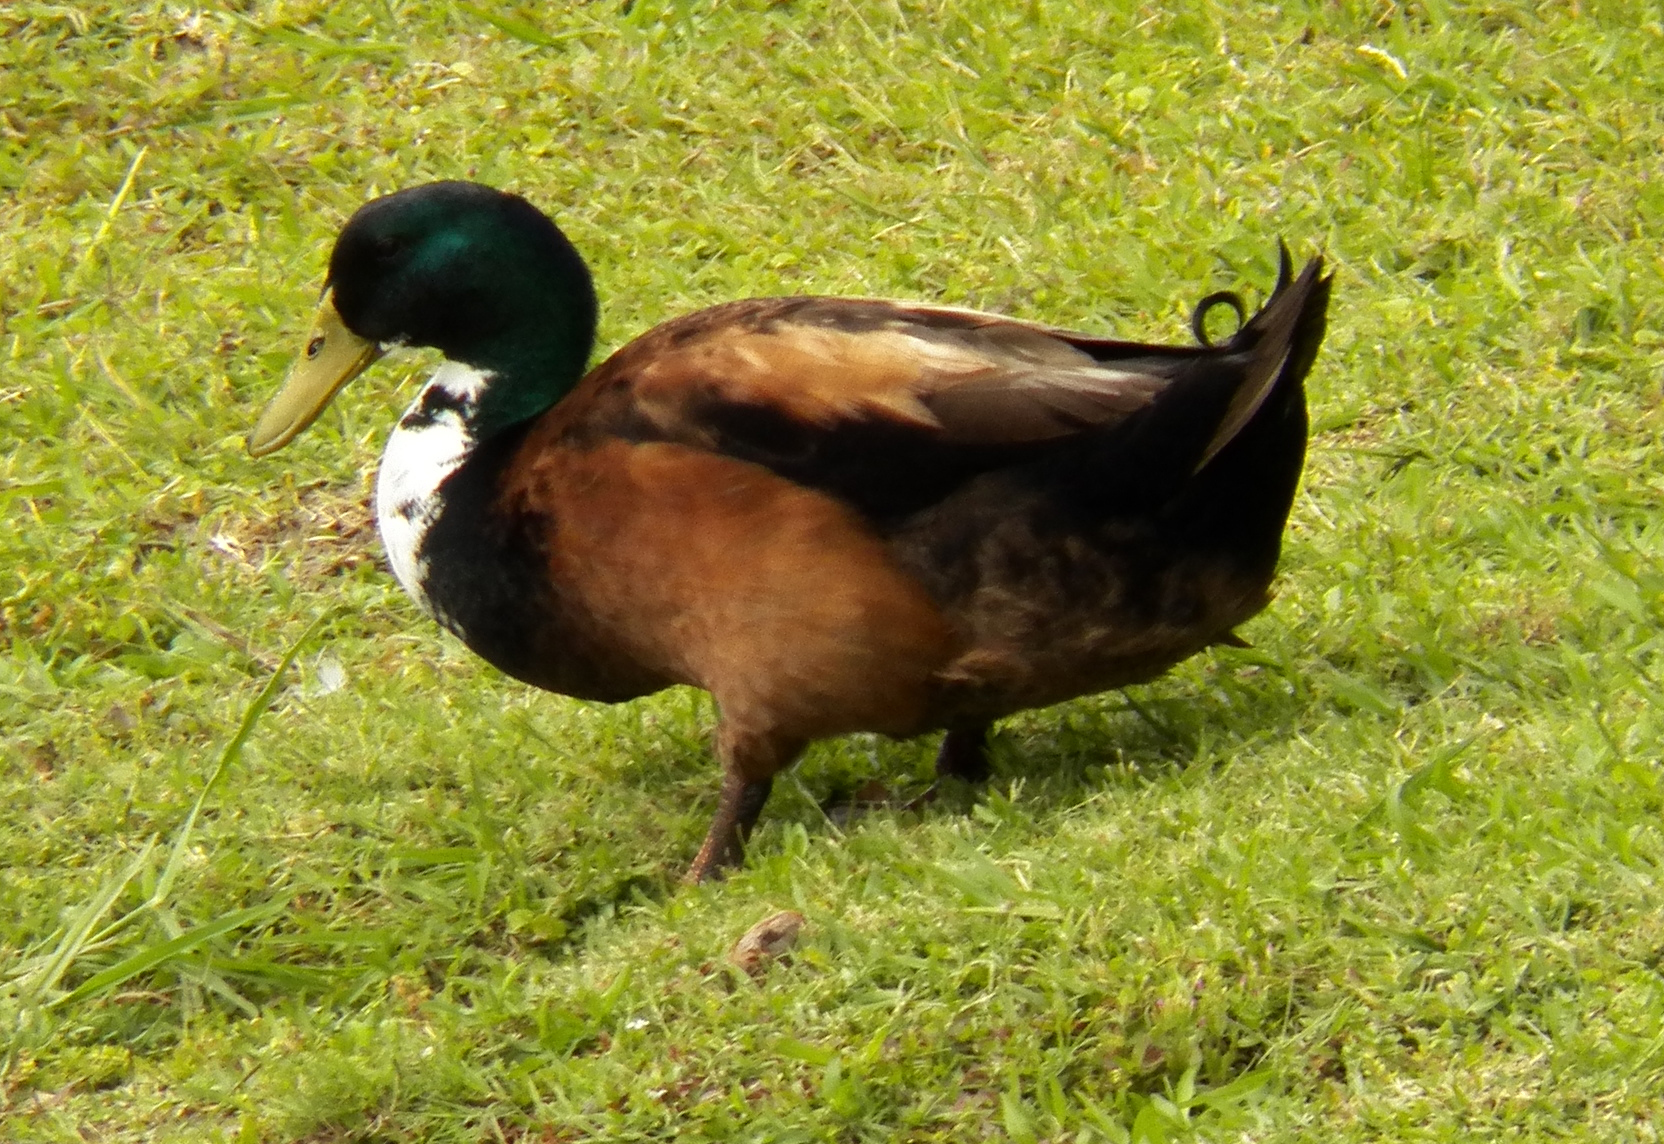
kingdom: Animalia
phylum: Chordata
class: Aves
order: Anseriformes
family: Anatidae
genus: Anas
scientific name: Anas platyrhynchos
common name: Mallard
